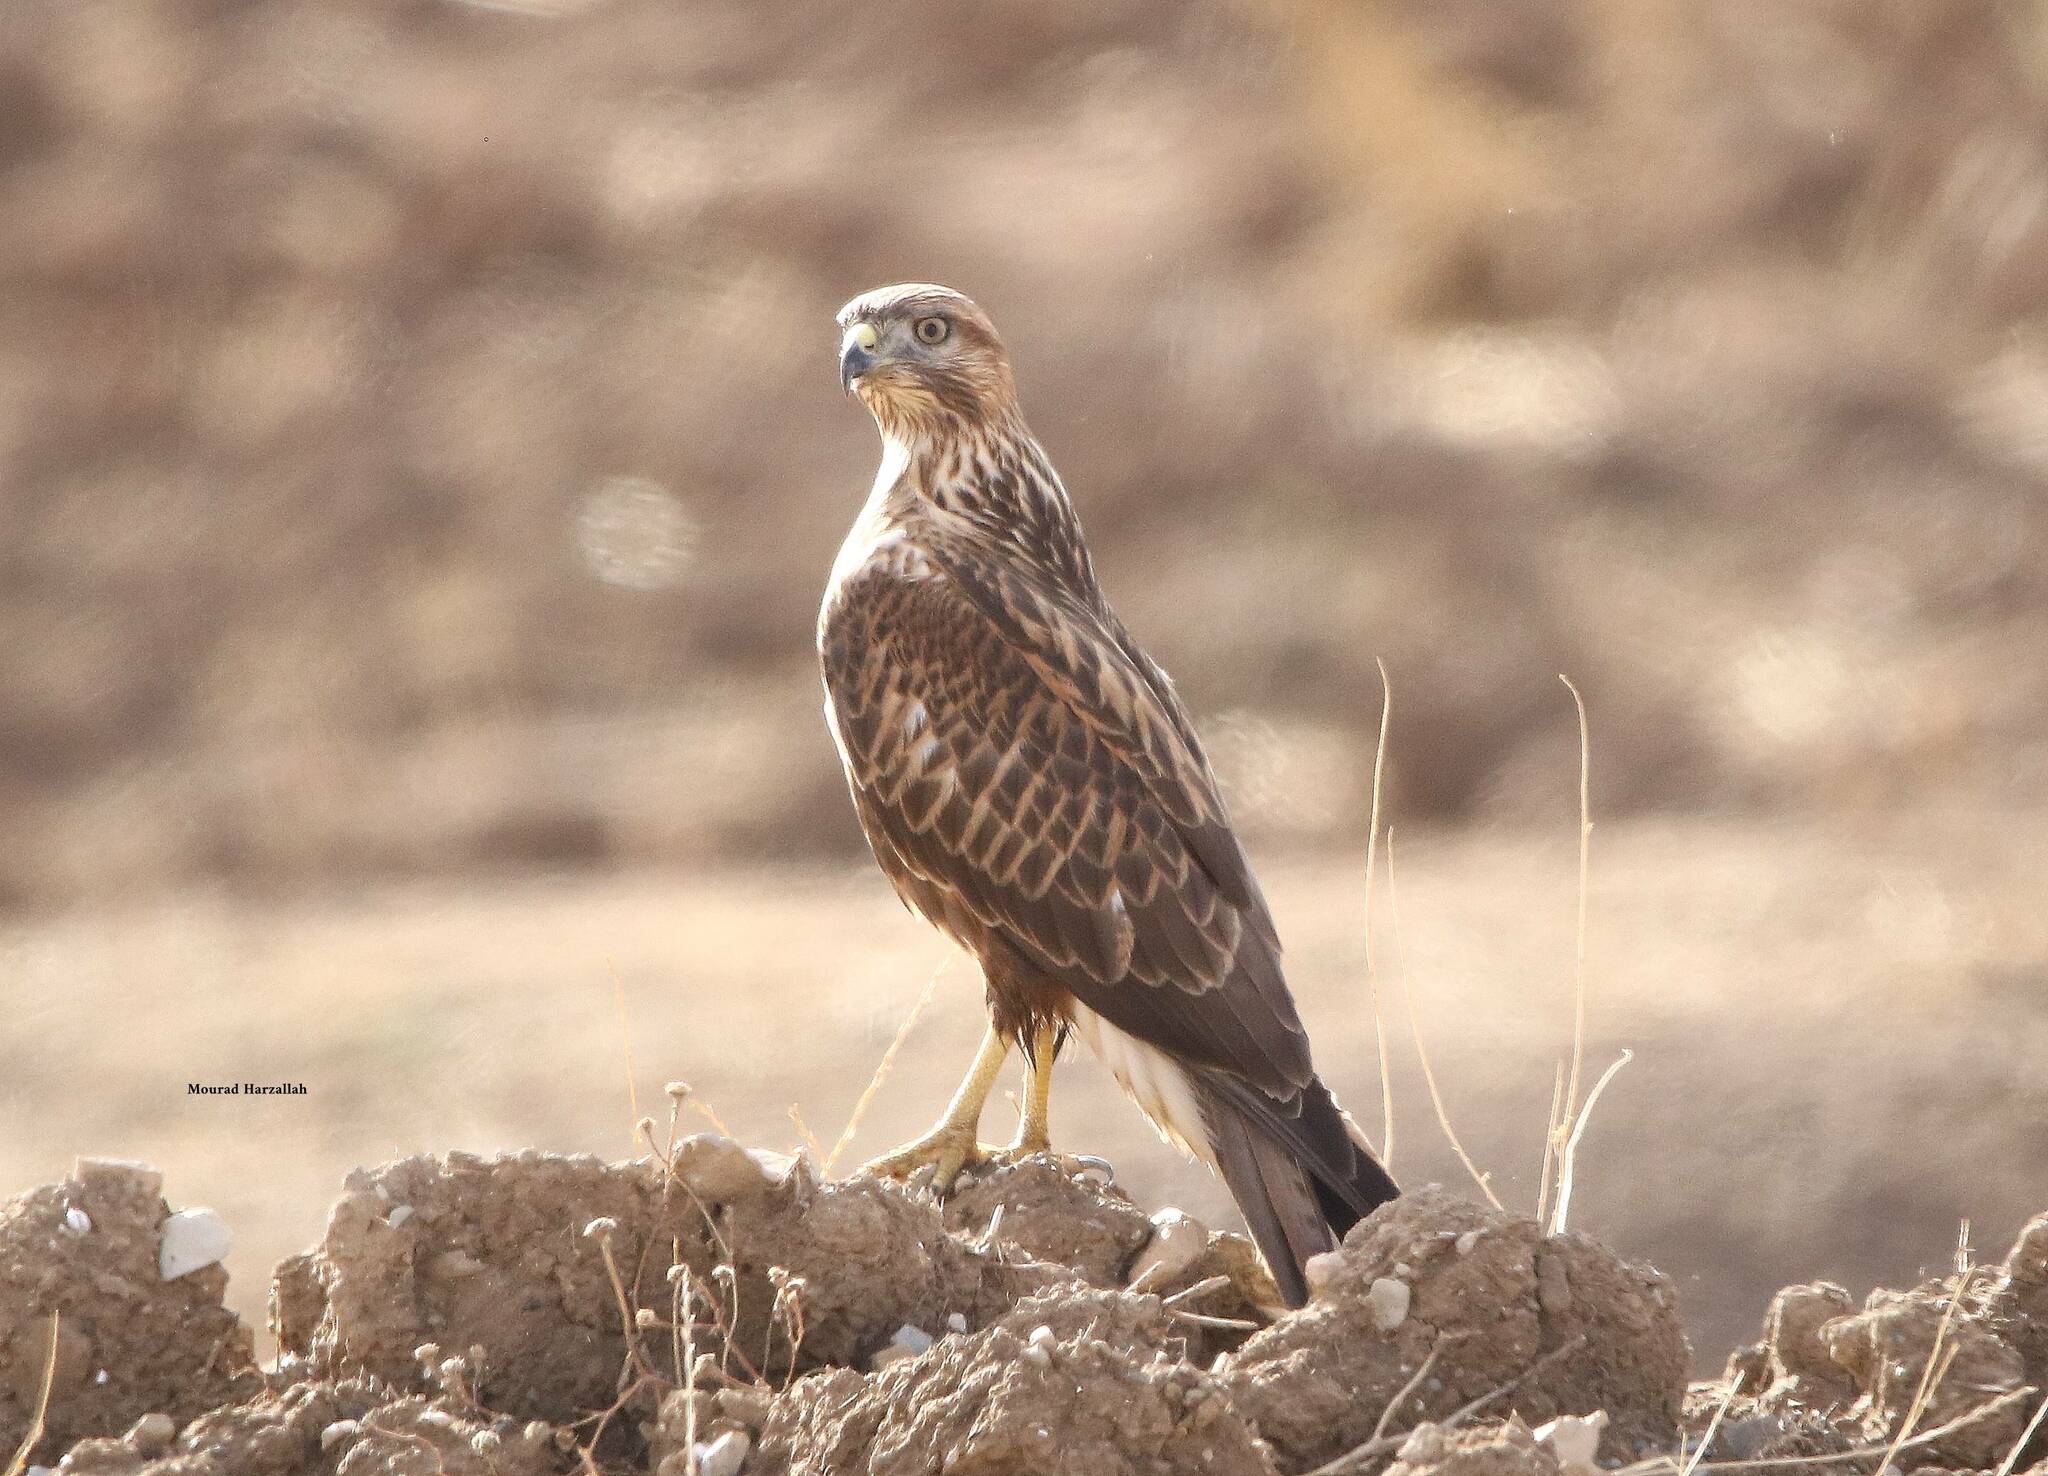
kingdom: Animalia
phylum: Chordata
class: Aves
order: Accipitriformes
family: Accipitridae
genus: Buteo
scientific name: Buteo rufinus
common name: Long-legged buzzard
